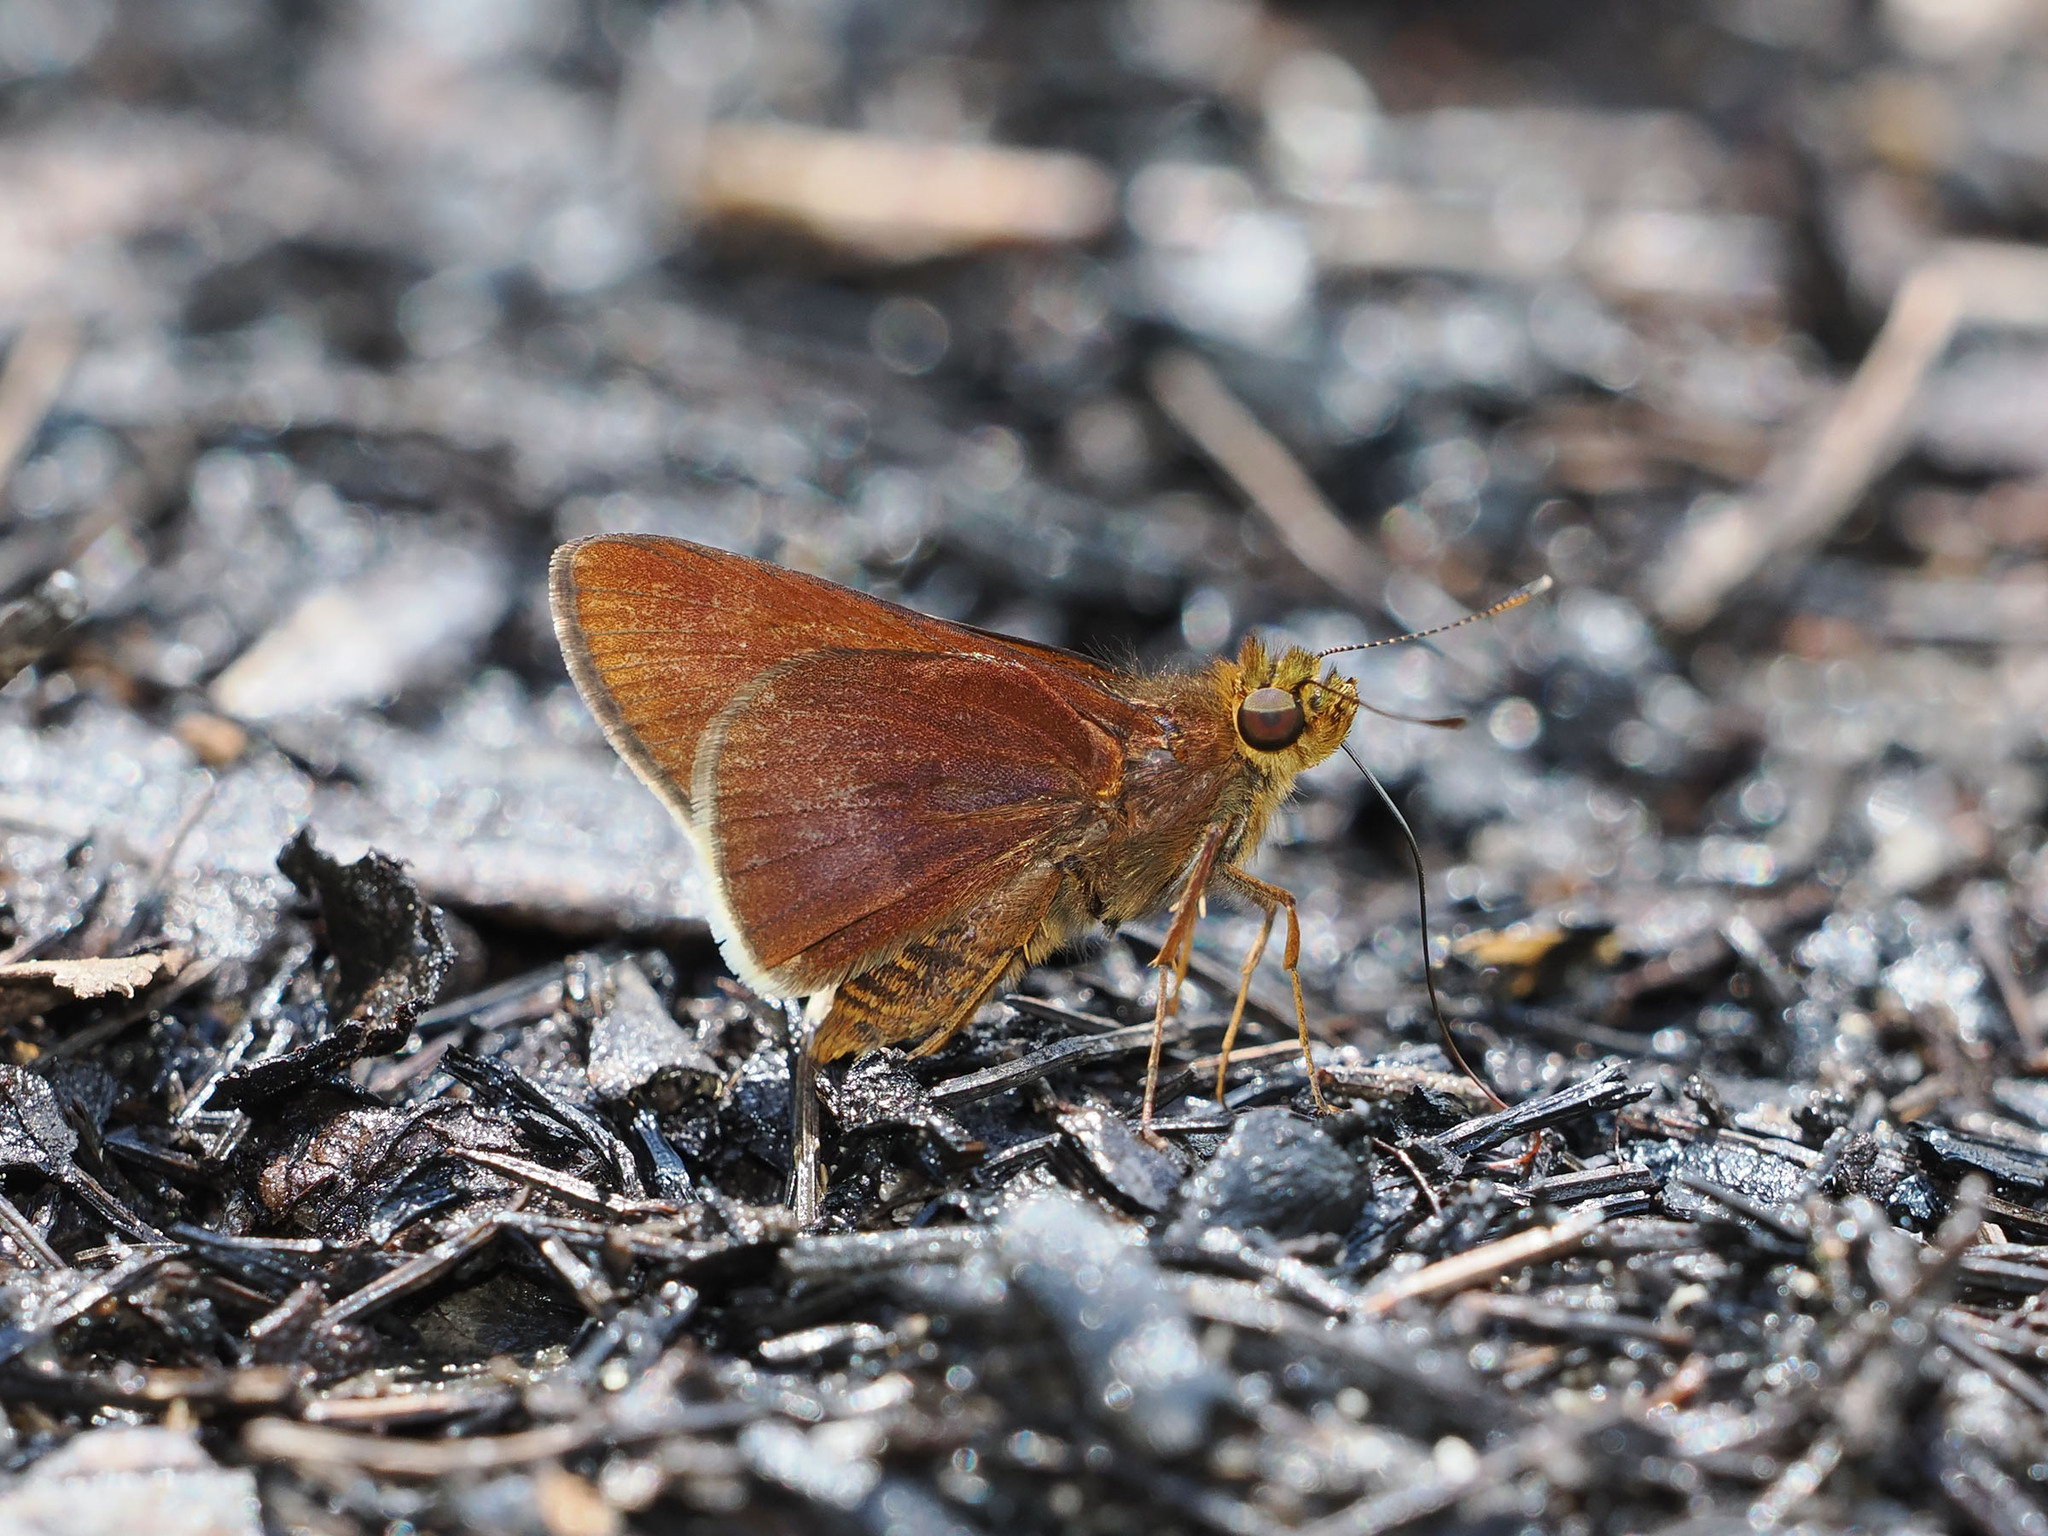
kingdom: Animalia
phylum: Arthropoda
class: Insecta
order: Lepidoptera
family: Hesperiidae
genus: Mimene
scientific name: Mimene
